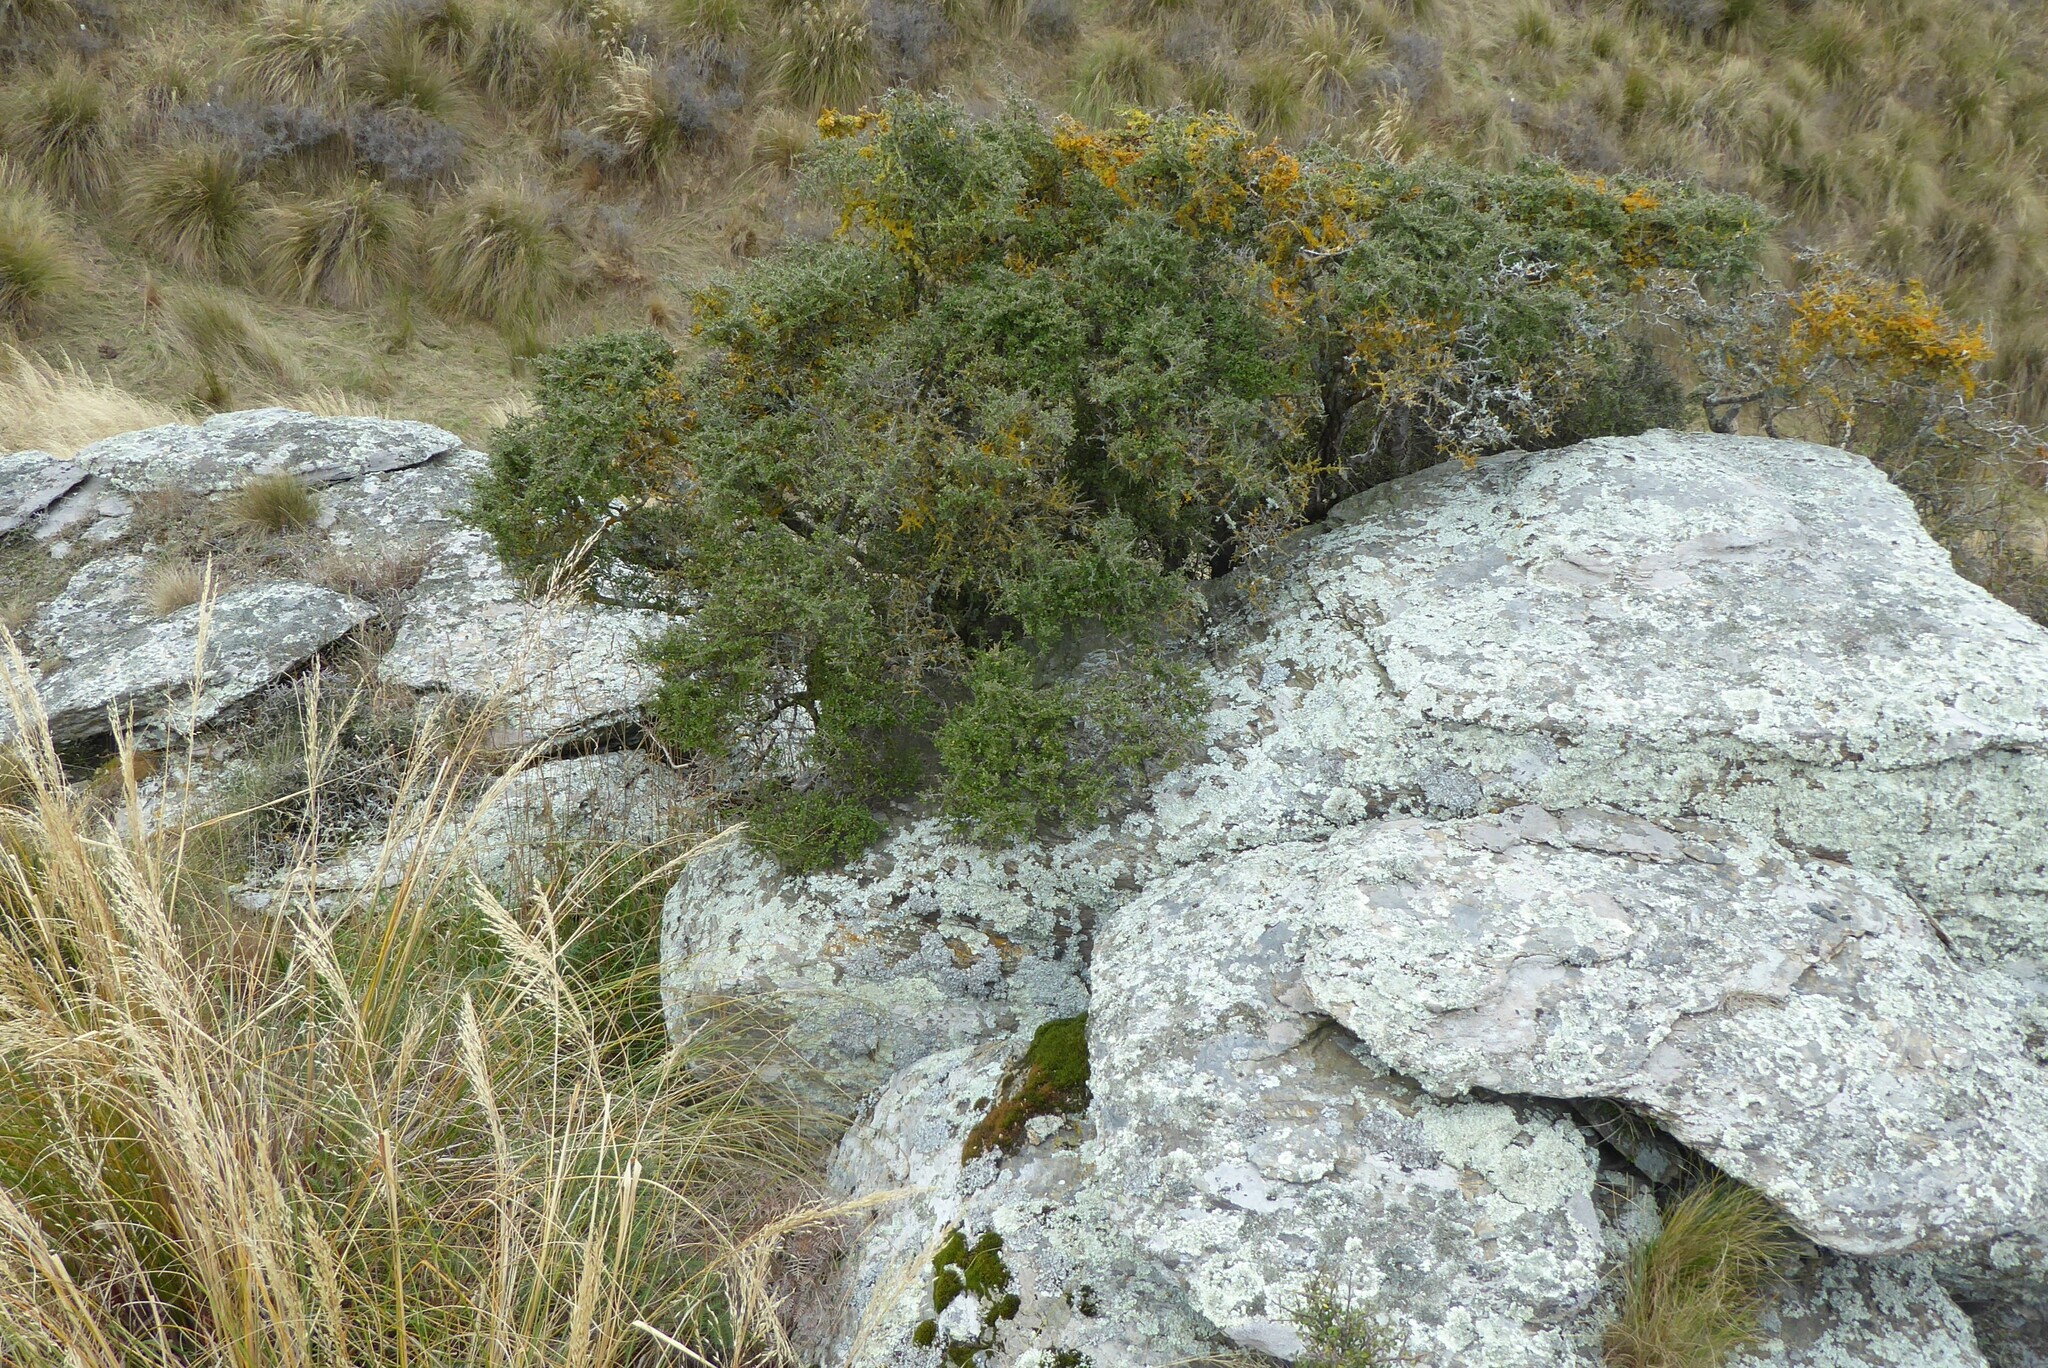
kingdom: Plantae
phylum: Tracheophyta
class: Magnoliopsida
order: Gentianales
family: Rubiaceae
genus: Coprosma
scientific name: Coprosma wallii
